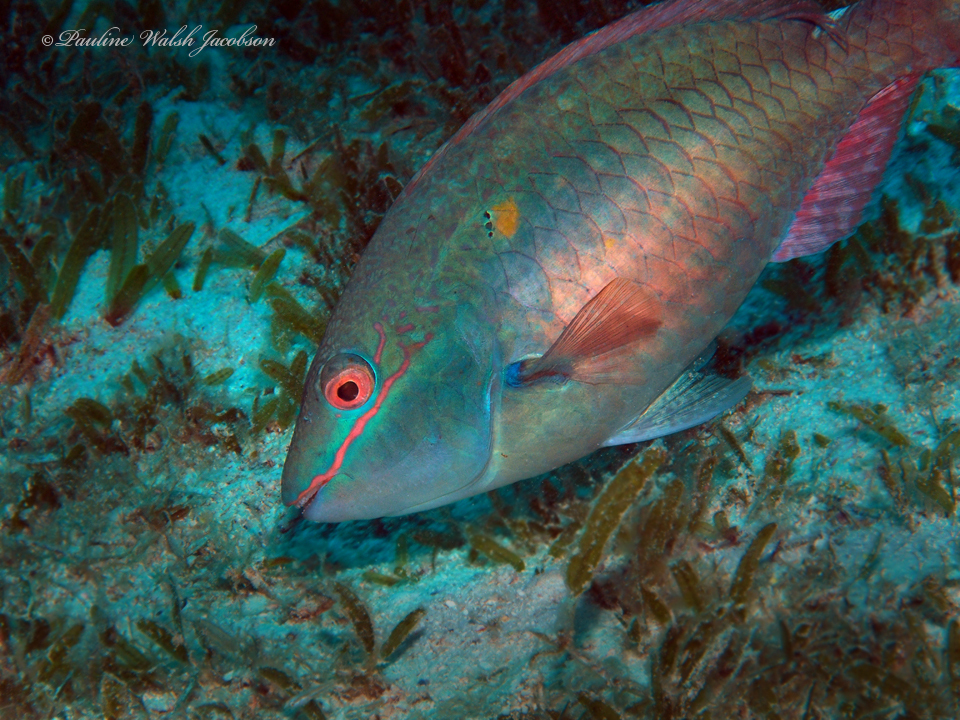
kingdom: Animalia
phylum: Chordata
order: Perciformes
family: Scaridae
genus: Sparisoma
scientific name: Sparisoma aurofrenatum
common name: Redband parrotfish
